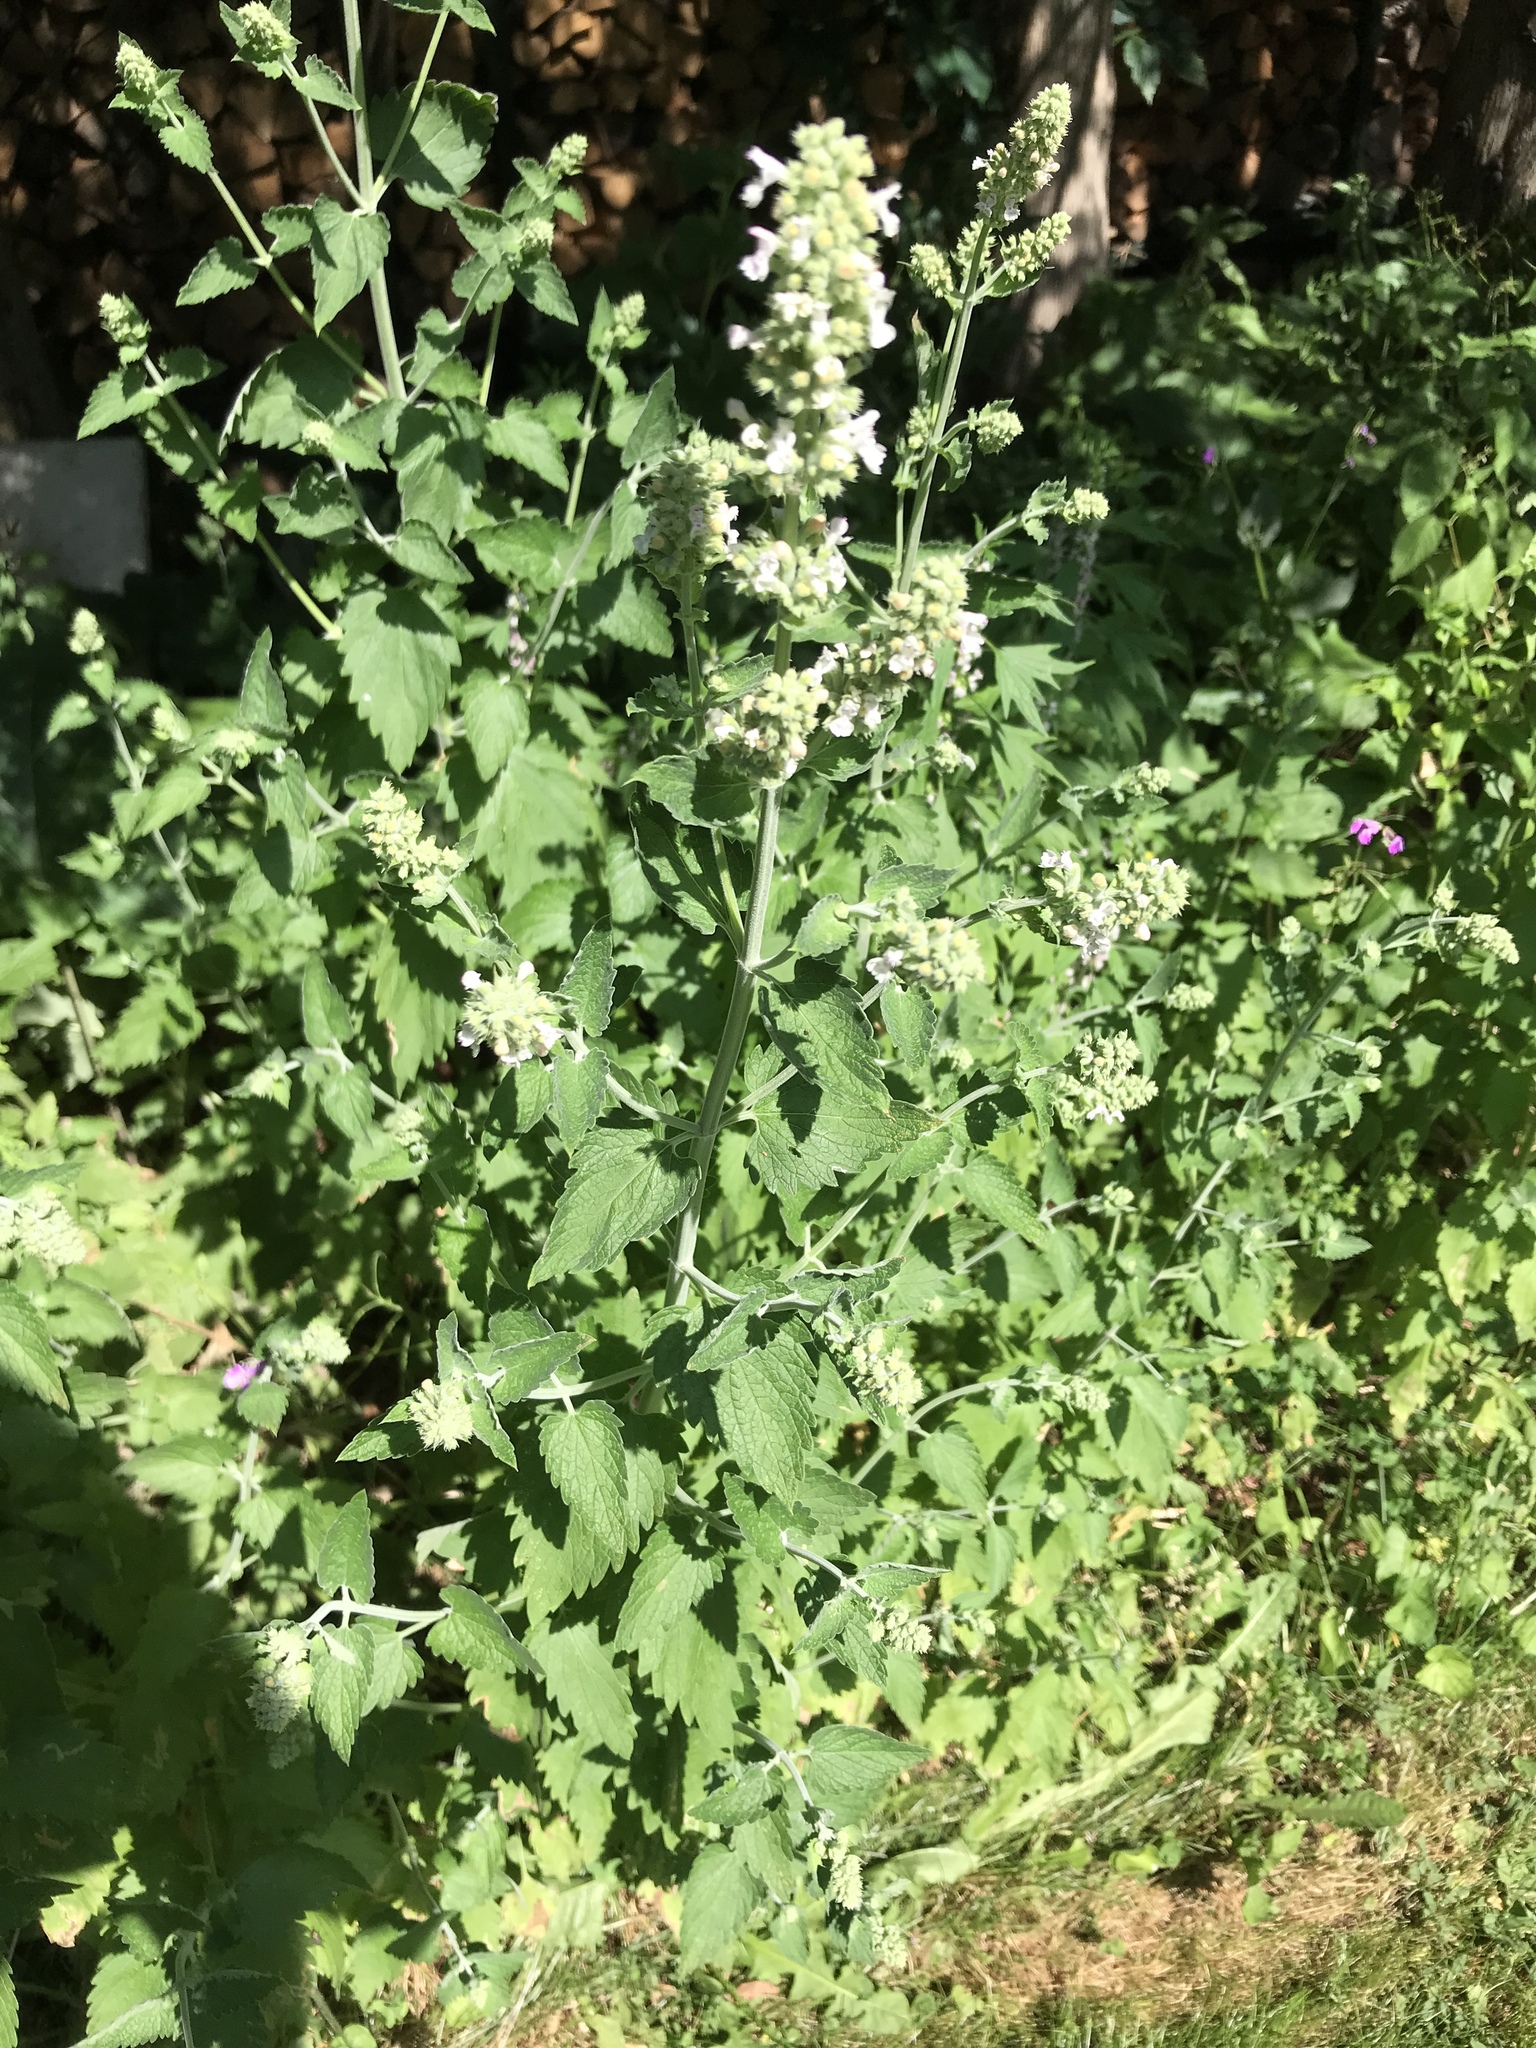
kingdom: Plantae
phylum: Tracheophyta
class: Magnoliopsida
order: Lamiales
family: Lamiaceae
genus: Nepeta
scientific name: Nepeta cataria
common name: Catnip
